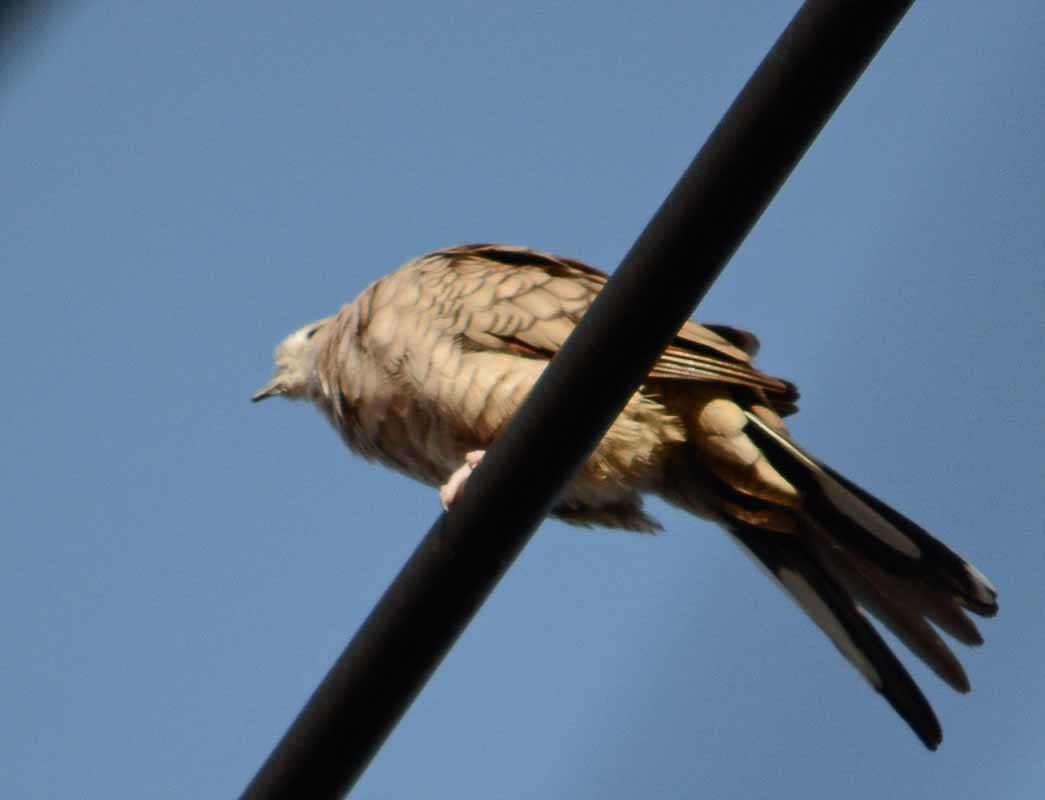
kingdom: Animalia
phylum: Chordata
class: Aves
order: Columbiformes
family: Columbidae
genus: Columbina
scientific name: Columbina inca
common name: Inca dove
